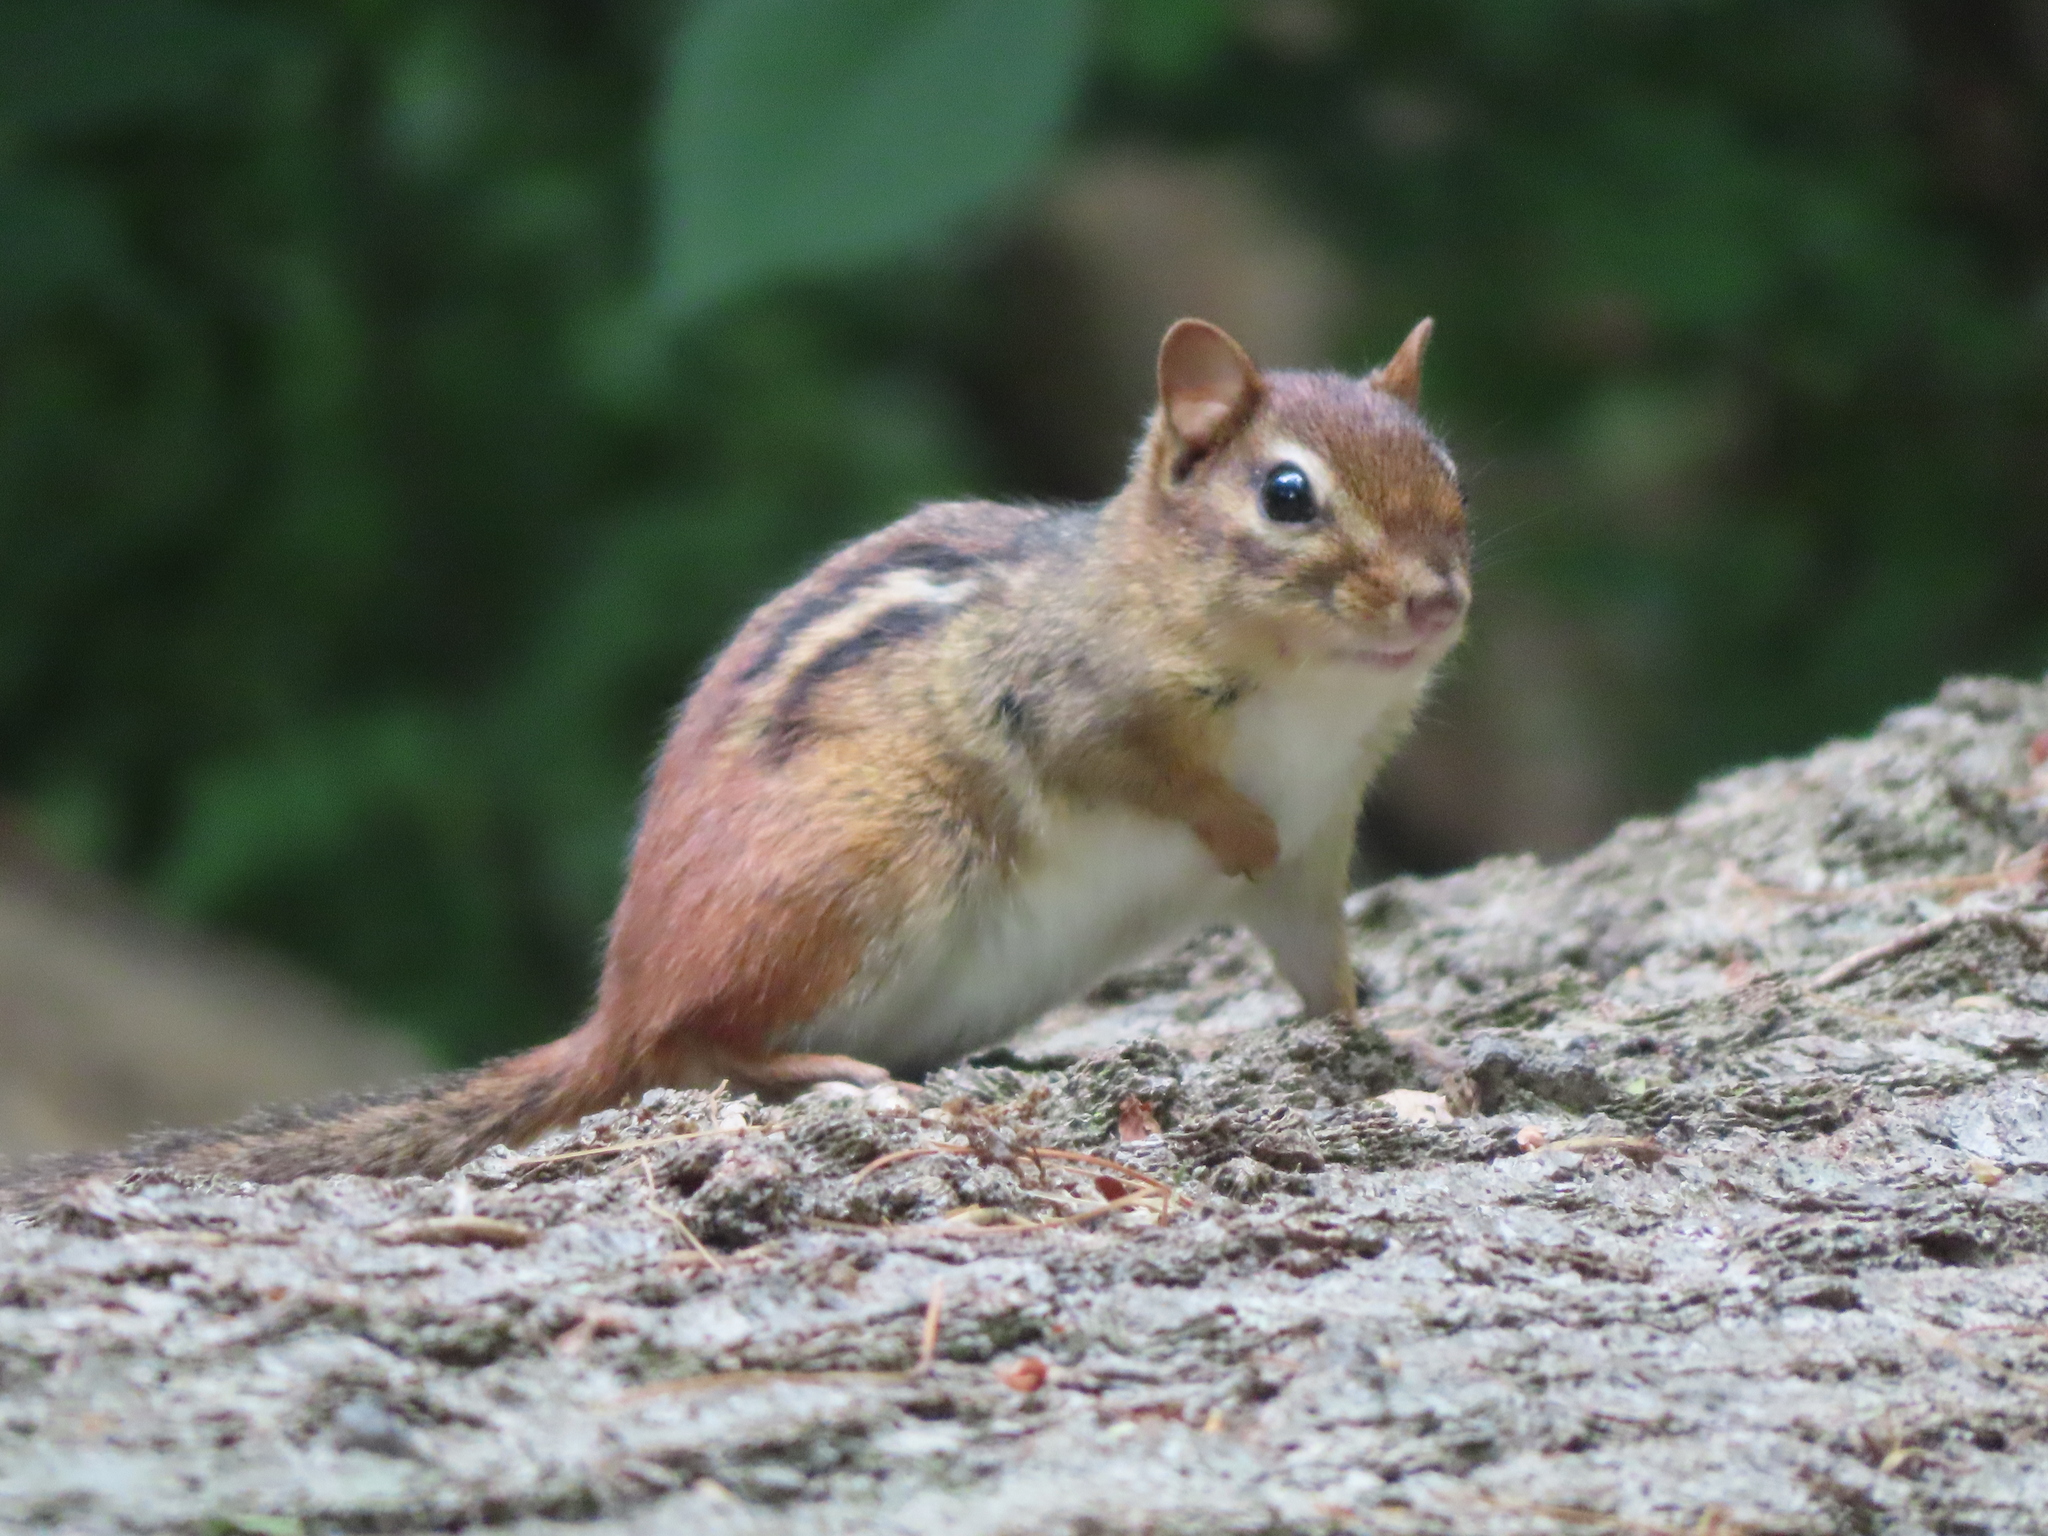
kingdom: Animalia
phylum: Chordata
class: Mammalia
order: Rodentia
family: Sciuridae
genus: Tamias
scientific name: Tamias striatus
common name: Eastern chipmunk
